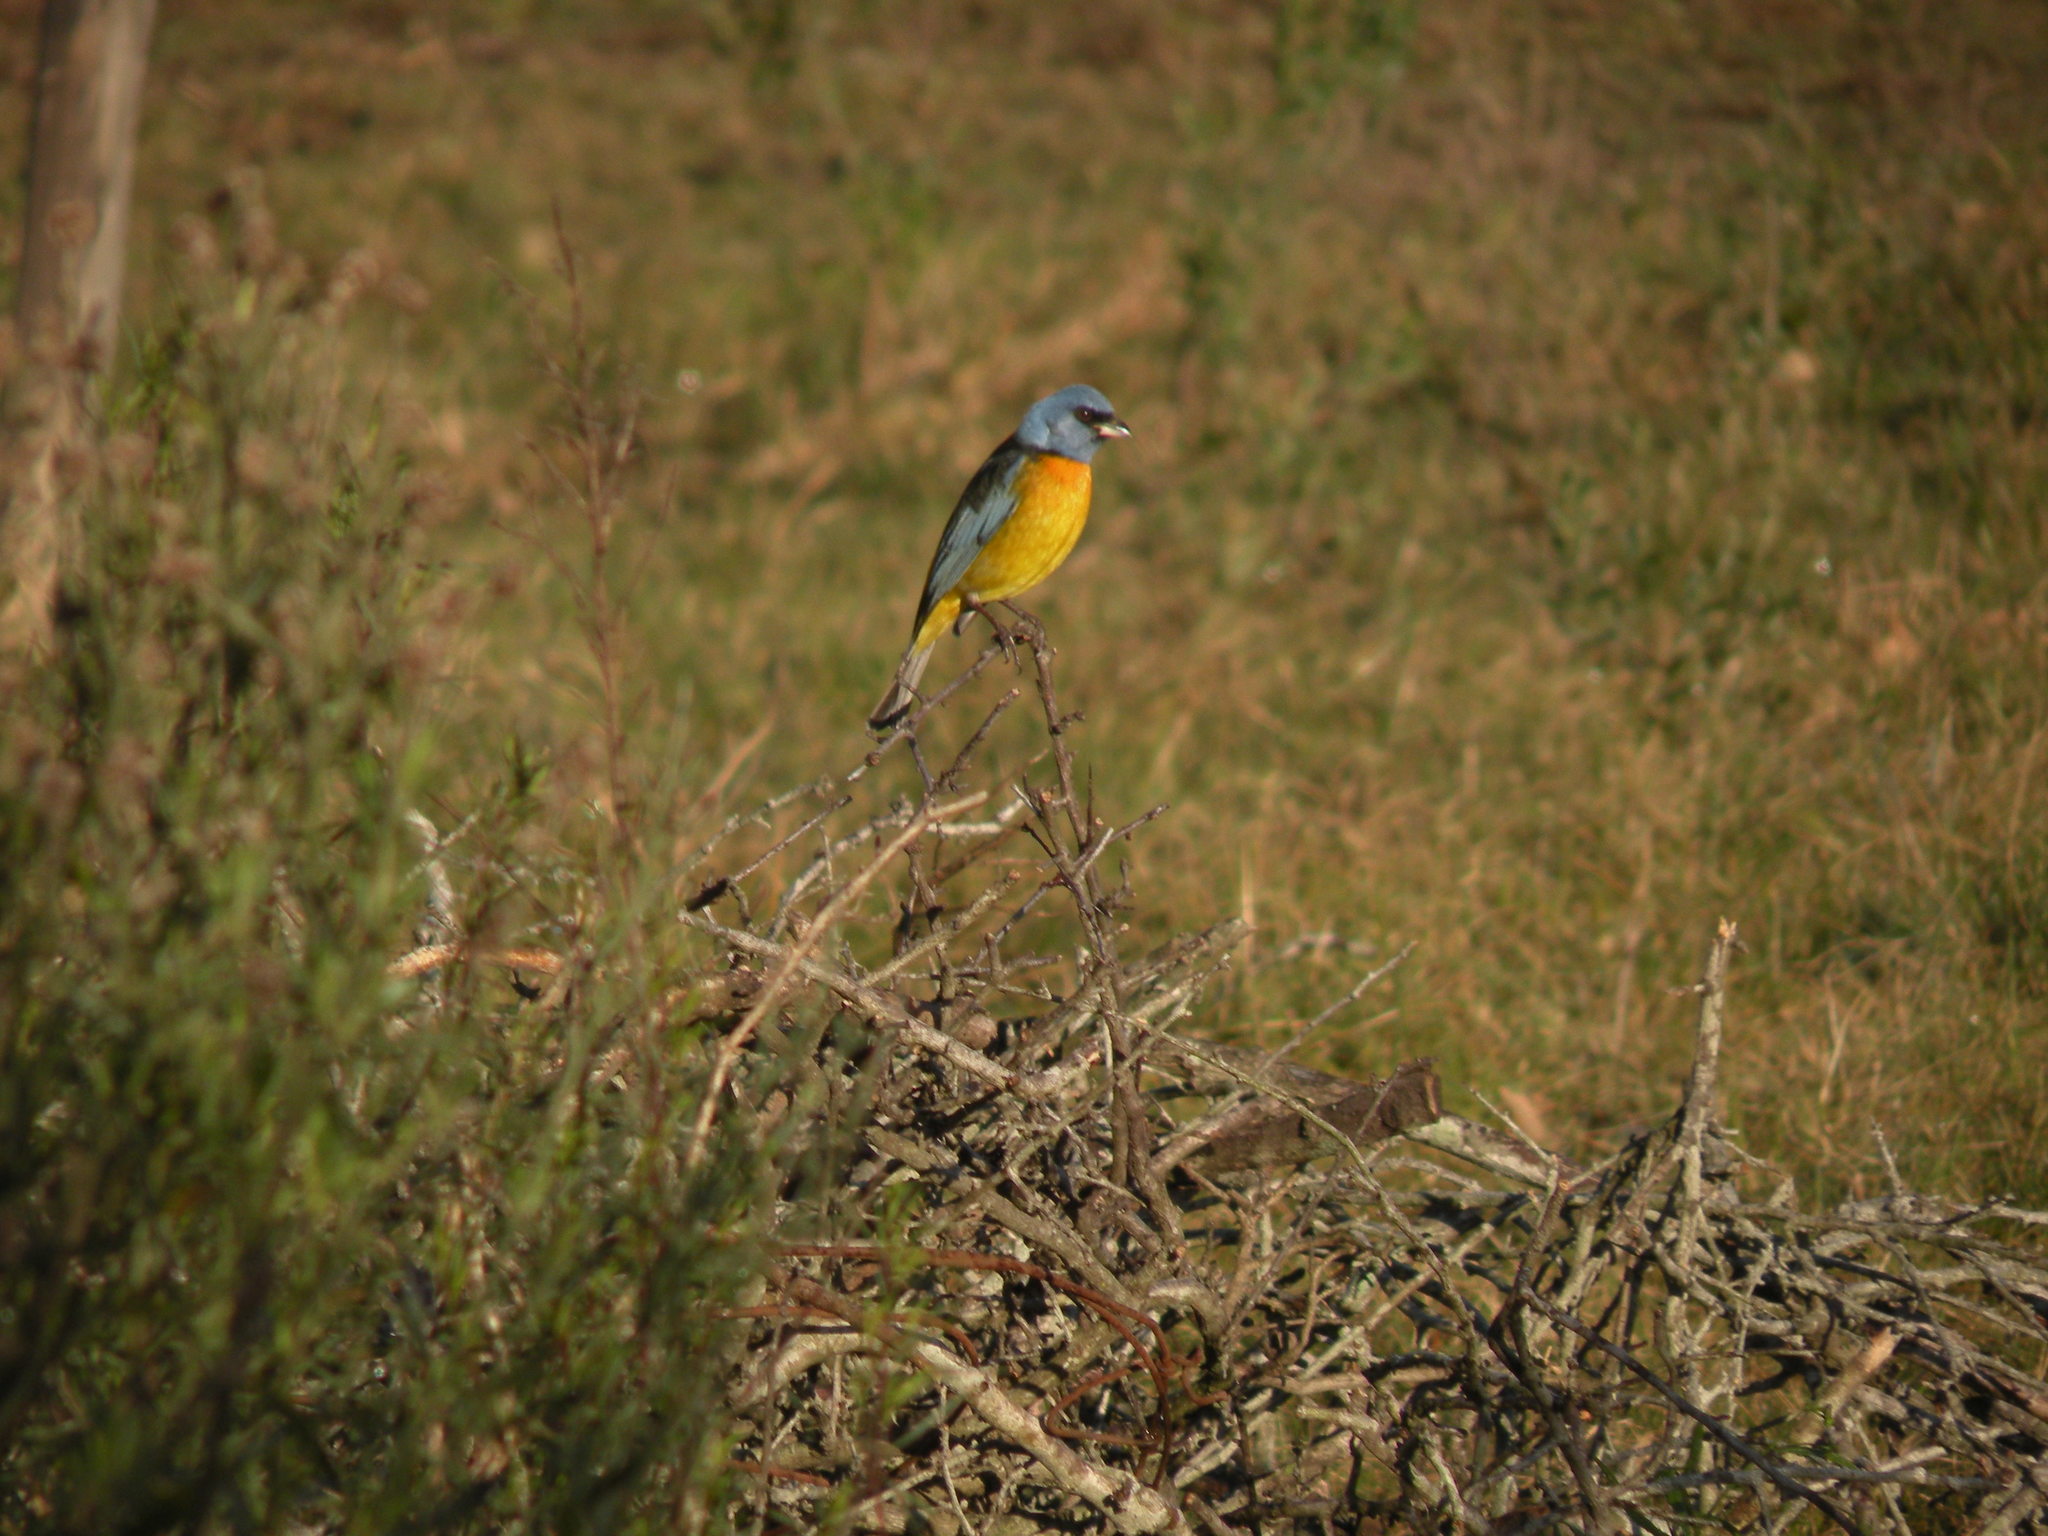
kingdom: Animalia
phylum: Chordata
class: Aves
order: Passeriformes
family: Thraupidae
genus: Rauenia
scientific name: Rauenia bonariensis
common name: Blue-and-yellow tanager
